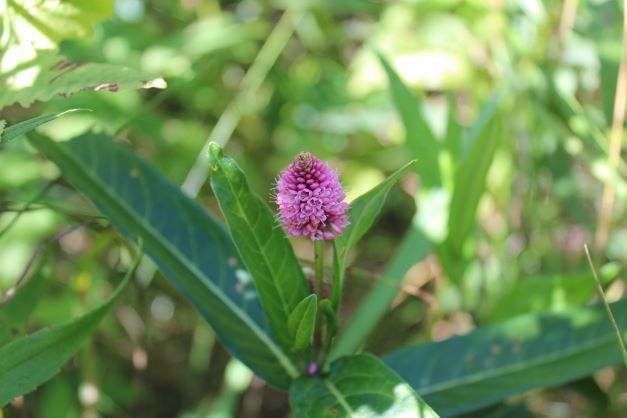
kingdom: Plantae
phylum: Tracheophyta
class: Magnoliopsida
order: Caryophyllales
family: Polygonaceae
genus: Persicaria
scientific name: Persicaria amphibia
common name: Amphibious bistort
